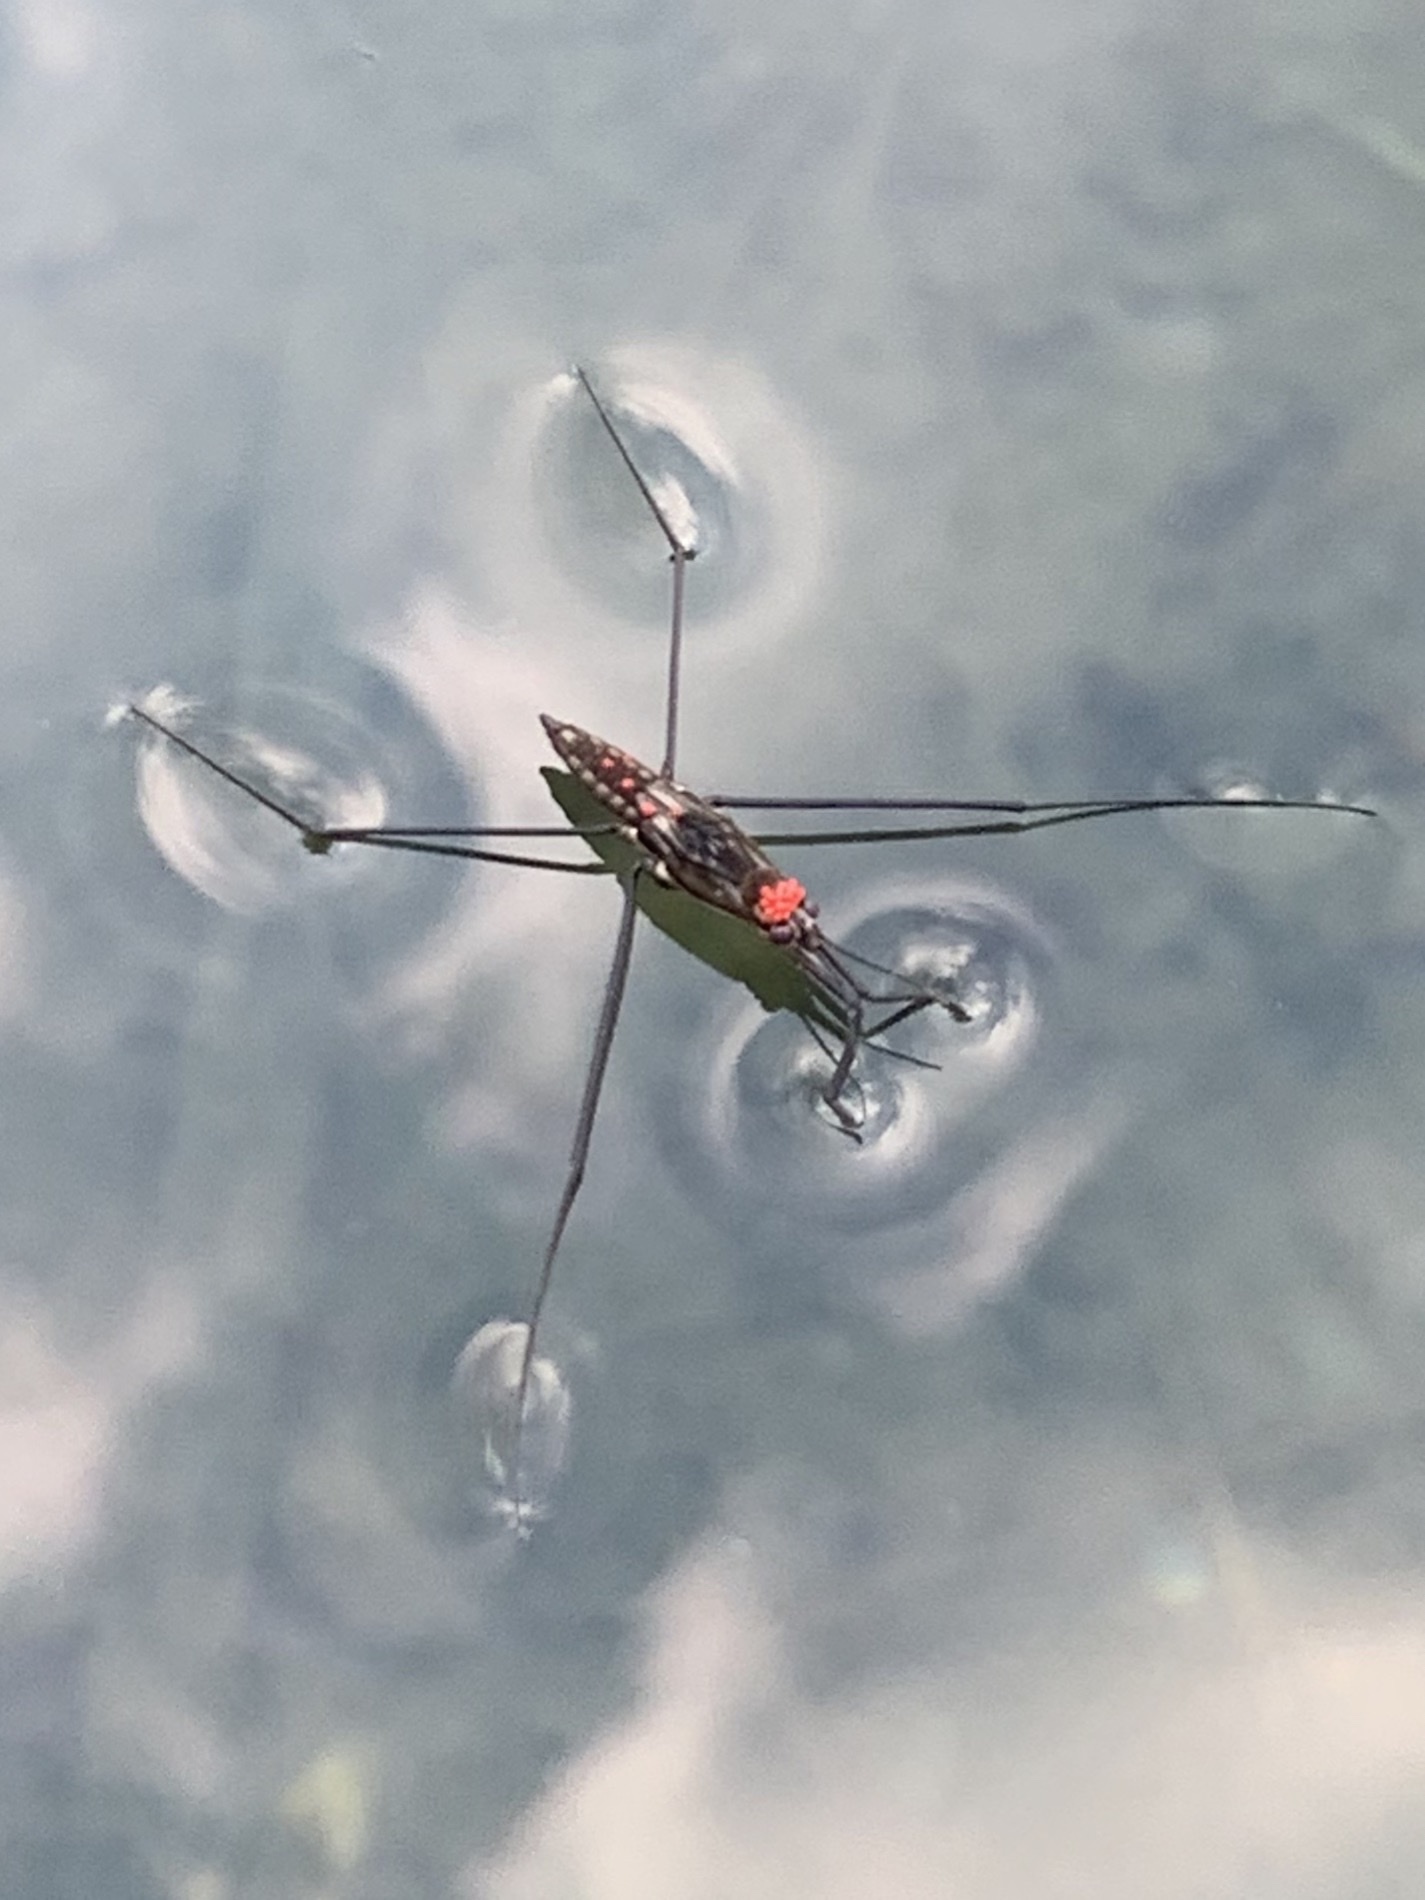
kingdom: Animalia
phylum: Arthropoda
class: Insecta
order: Hemiptera
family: Gerridae
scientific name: Gerridae
